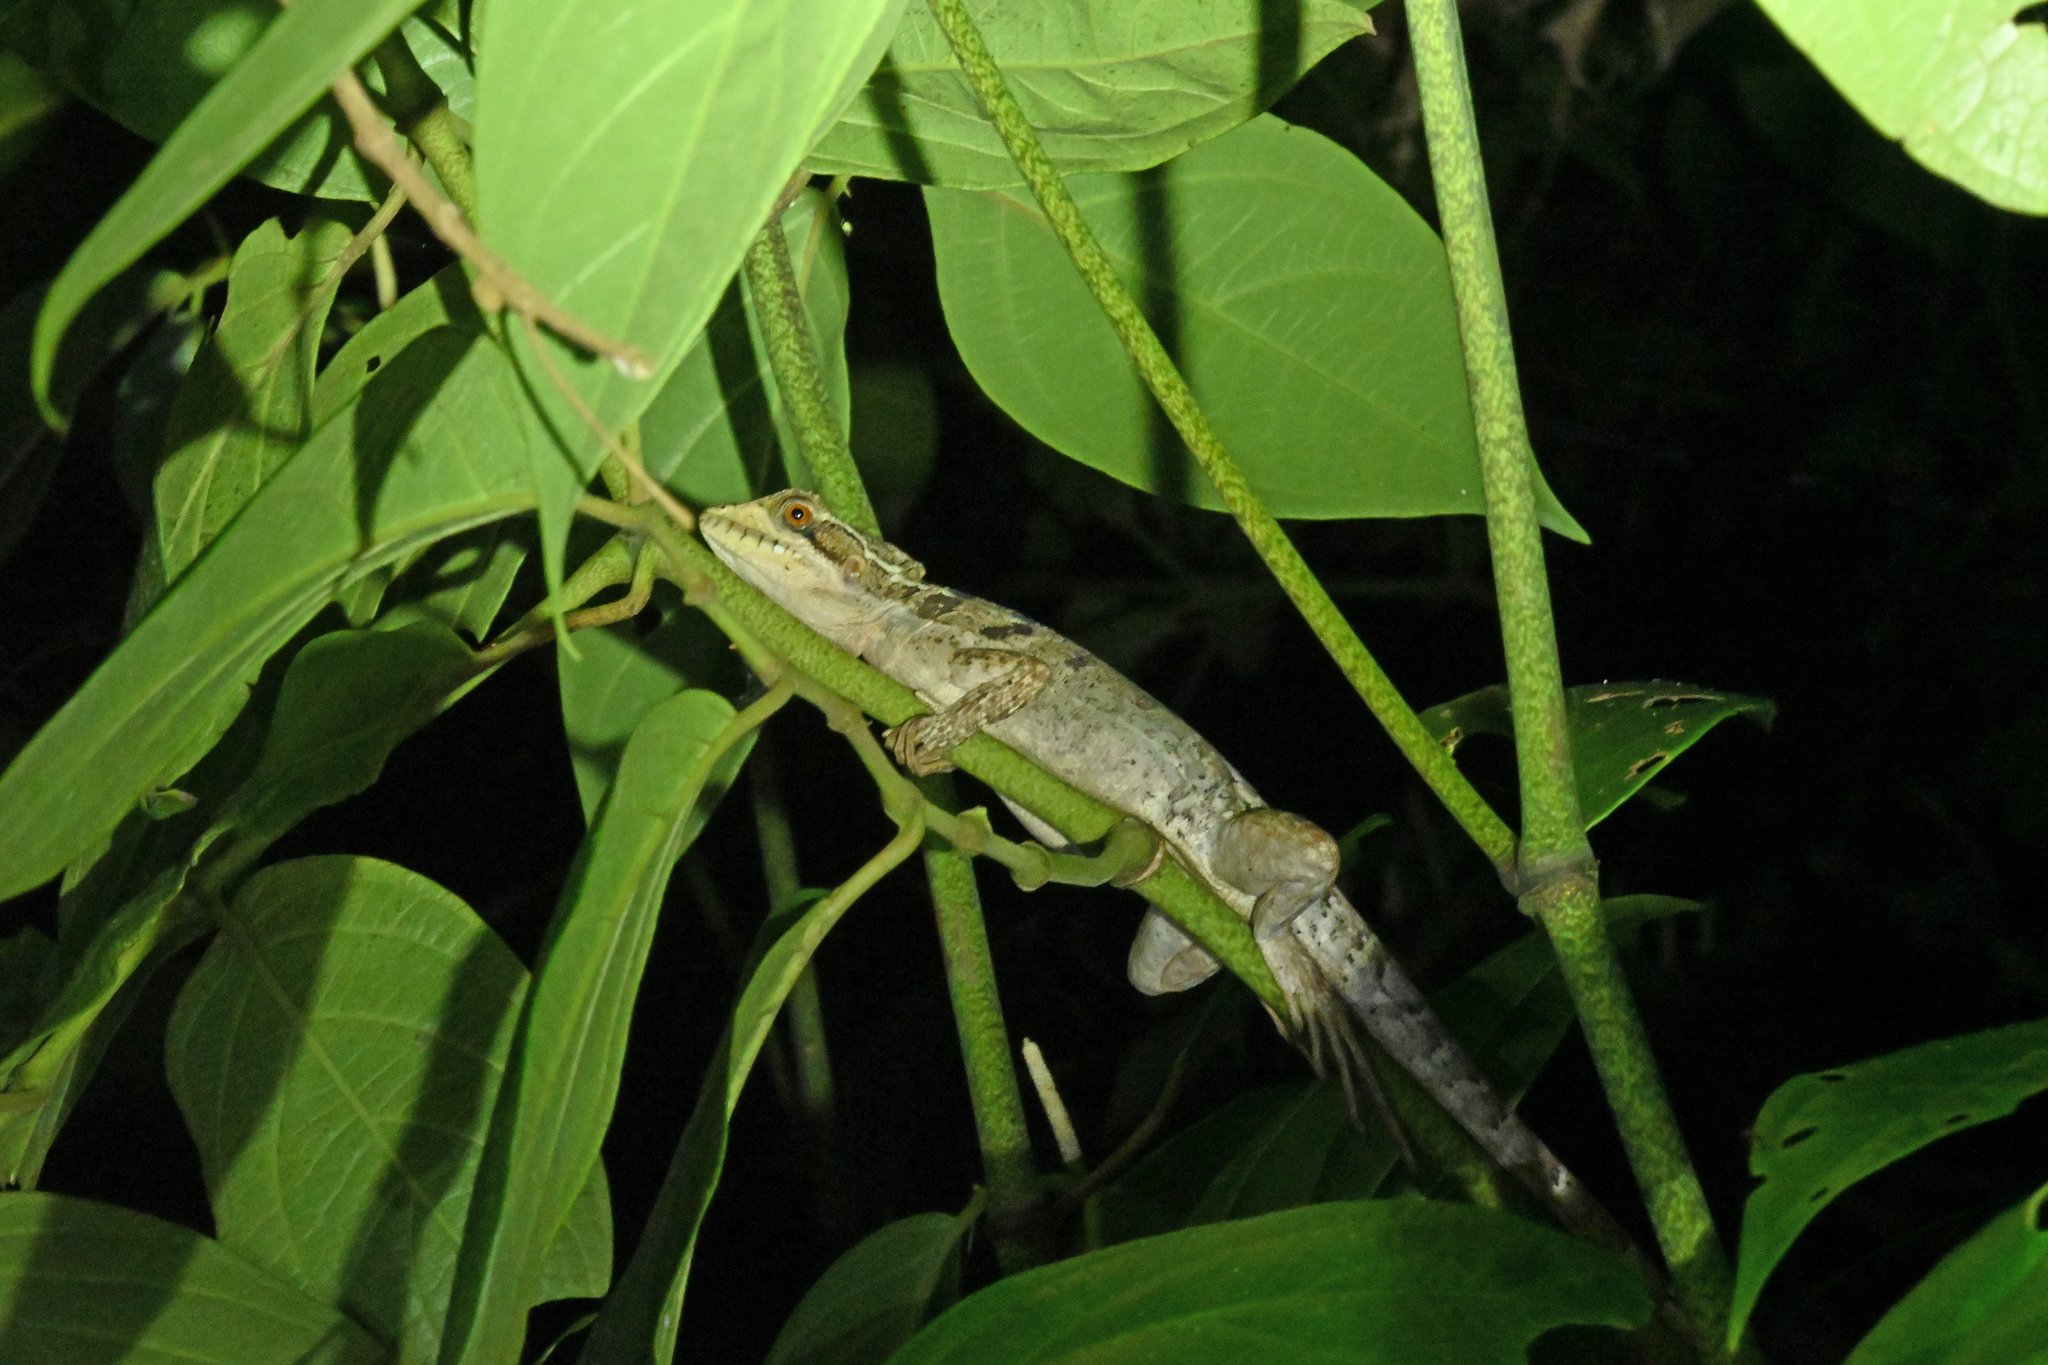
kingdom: Animalia
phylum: Chordata
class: Squamata
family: Corytophanidae
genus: Basiliscus
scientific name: Basiliscus vittatus
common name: Brown basilisk
